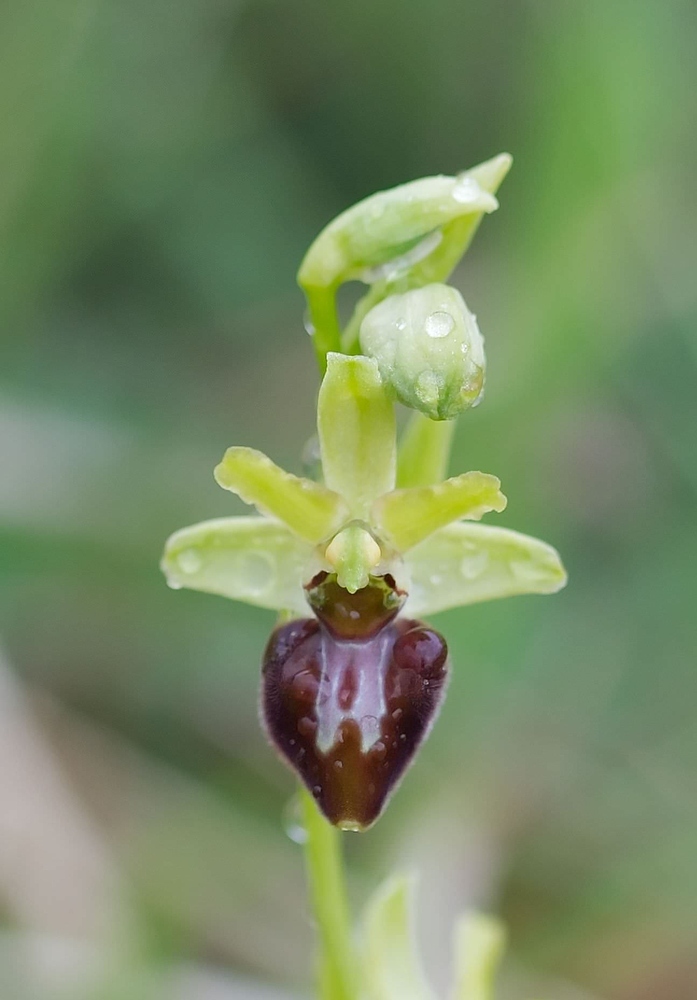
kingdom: Plantae
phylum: Tracheophyta
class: Liliopsida
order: Asparagales
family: Orchidaceae
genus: Ophrys
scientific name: Ophrys sphegodes
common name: Early spider-orchid
